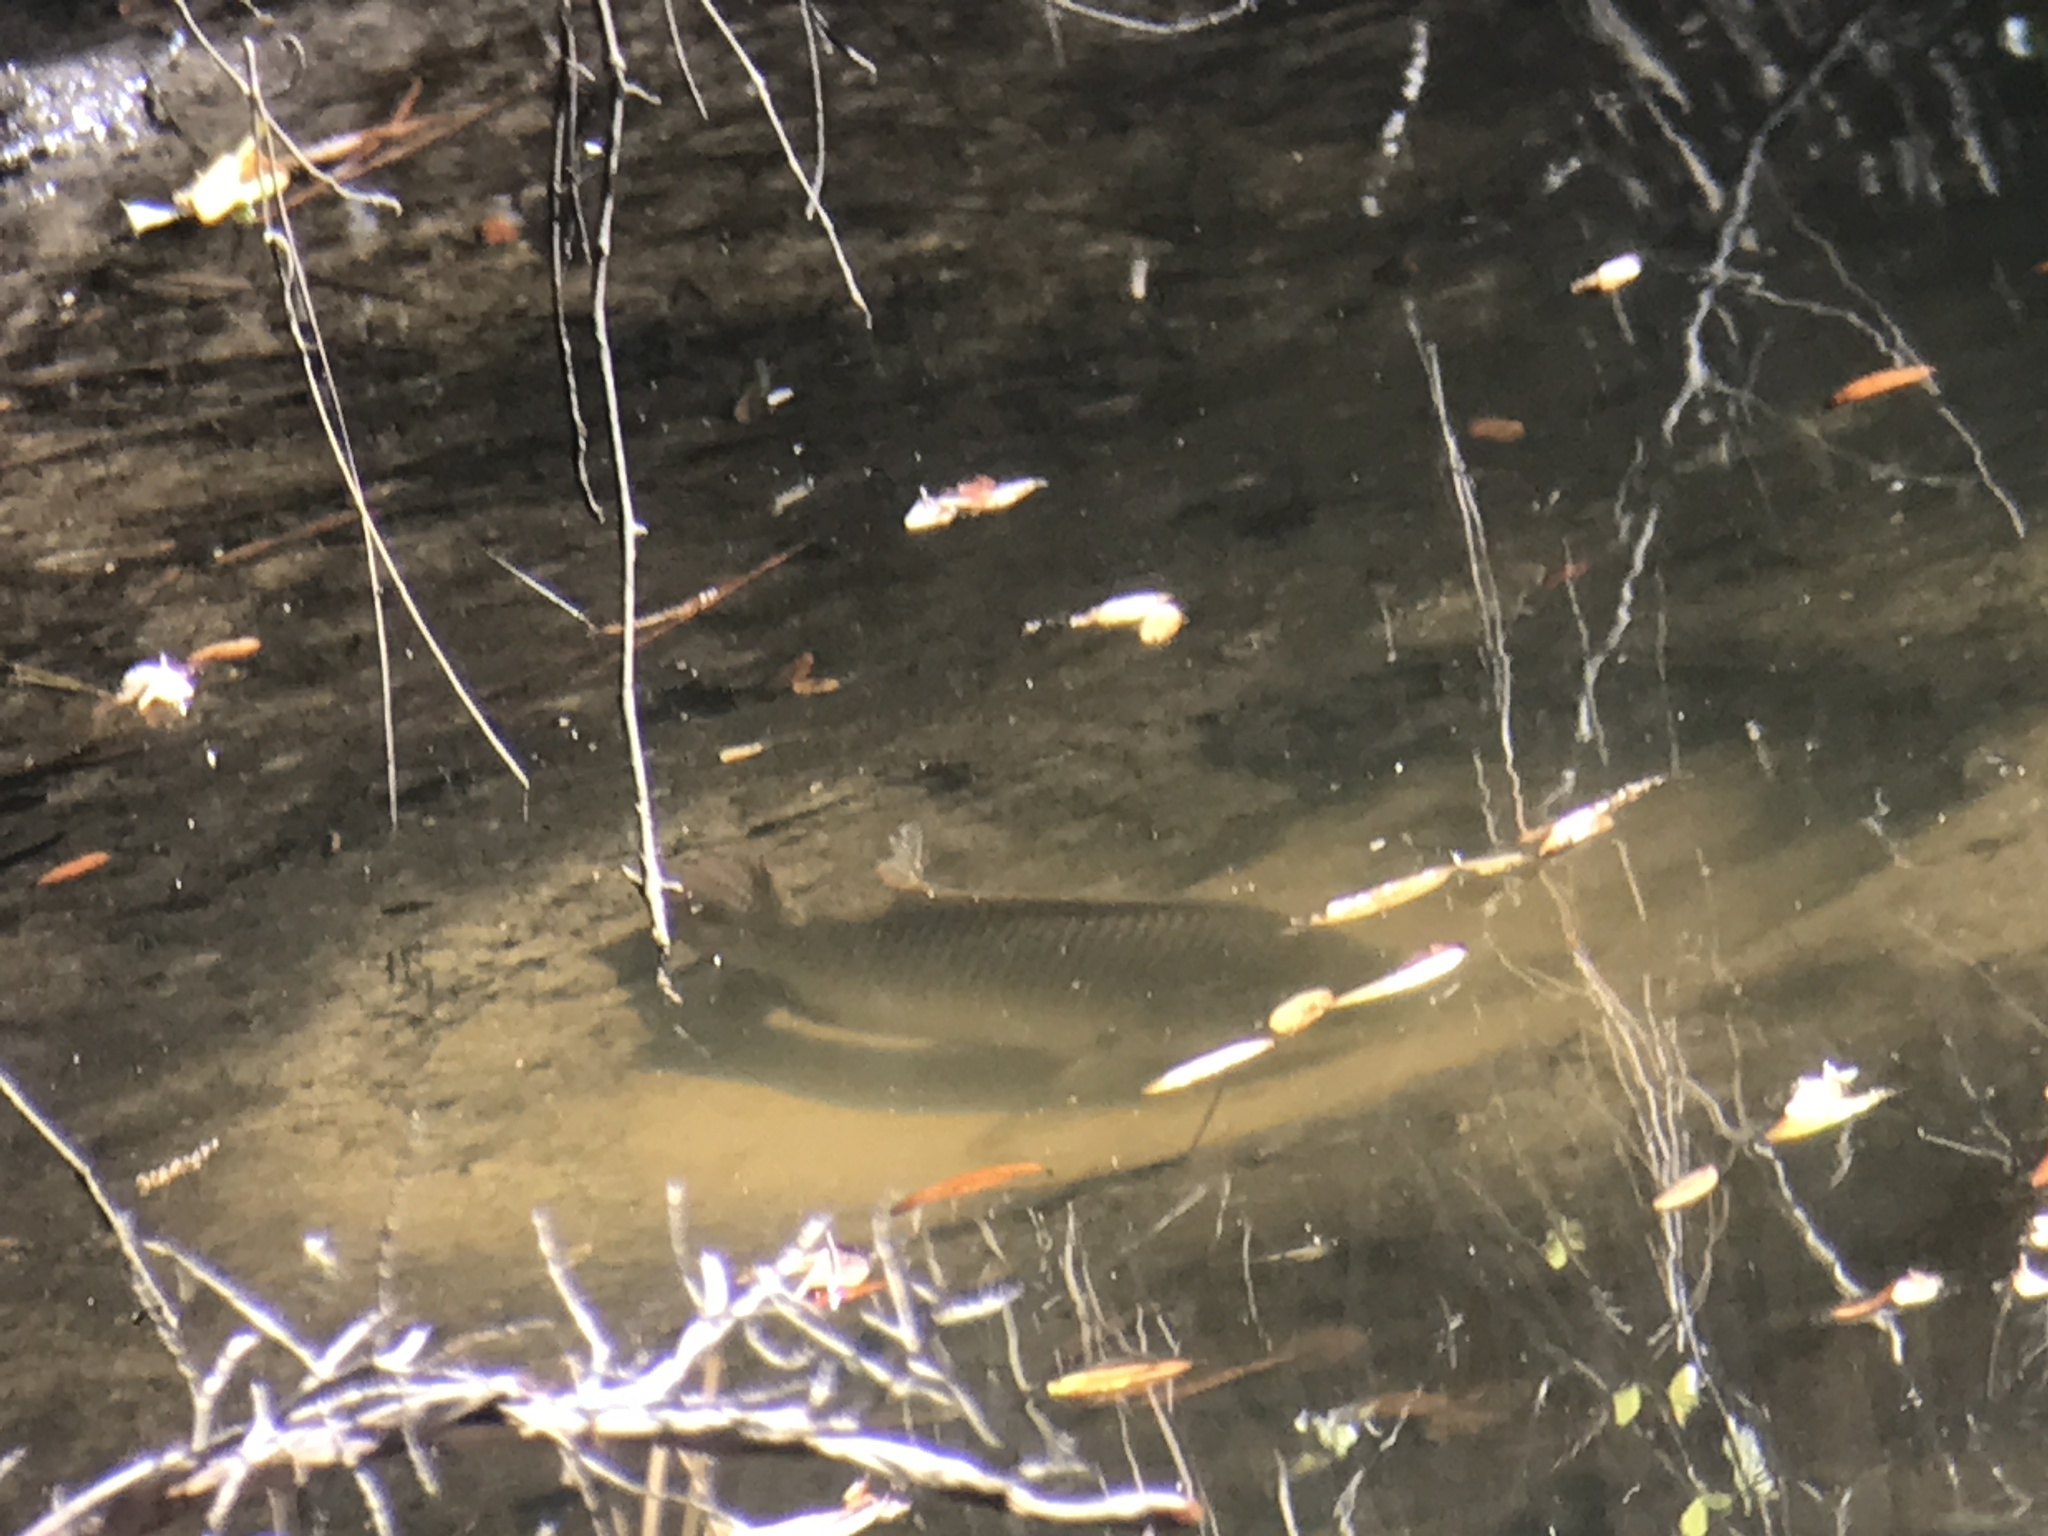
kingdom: Animalia
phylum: Chordata
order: Perciformes
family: Cichlidae
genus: Oreochromis
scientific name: Oreochromis aureus
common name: Blue tilapia
